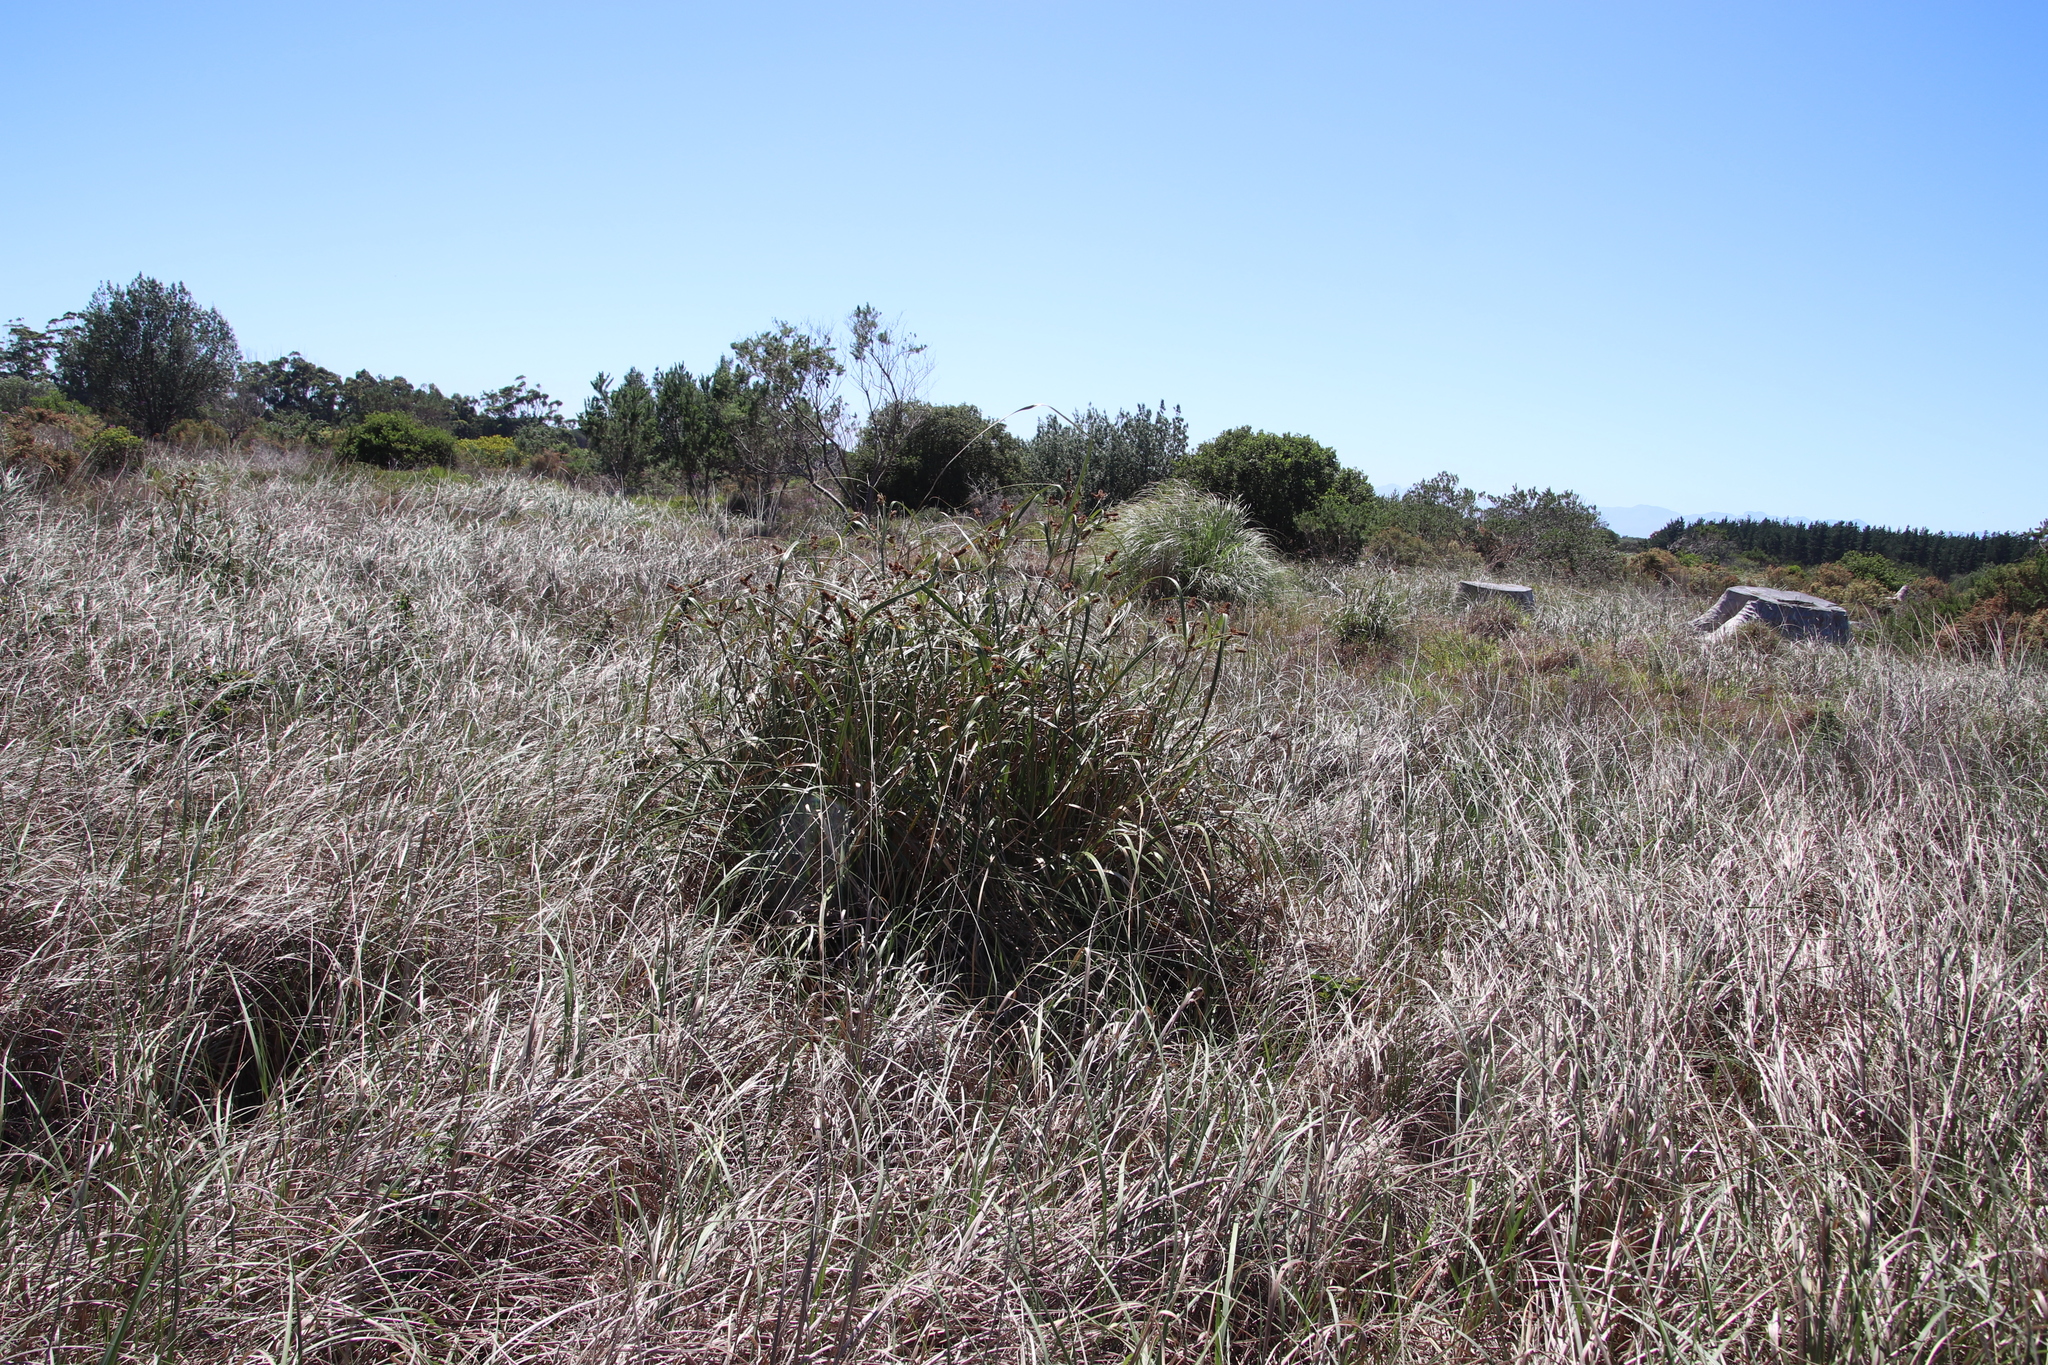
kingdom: Plantae
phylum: Tracheophyta
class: Liliopsida
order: Poales
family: Cyperaceae
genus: Cyperus
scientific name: Cyperus thunbergii
